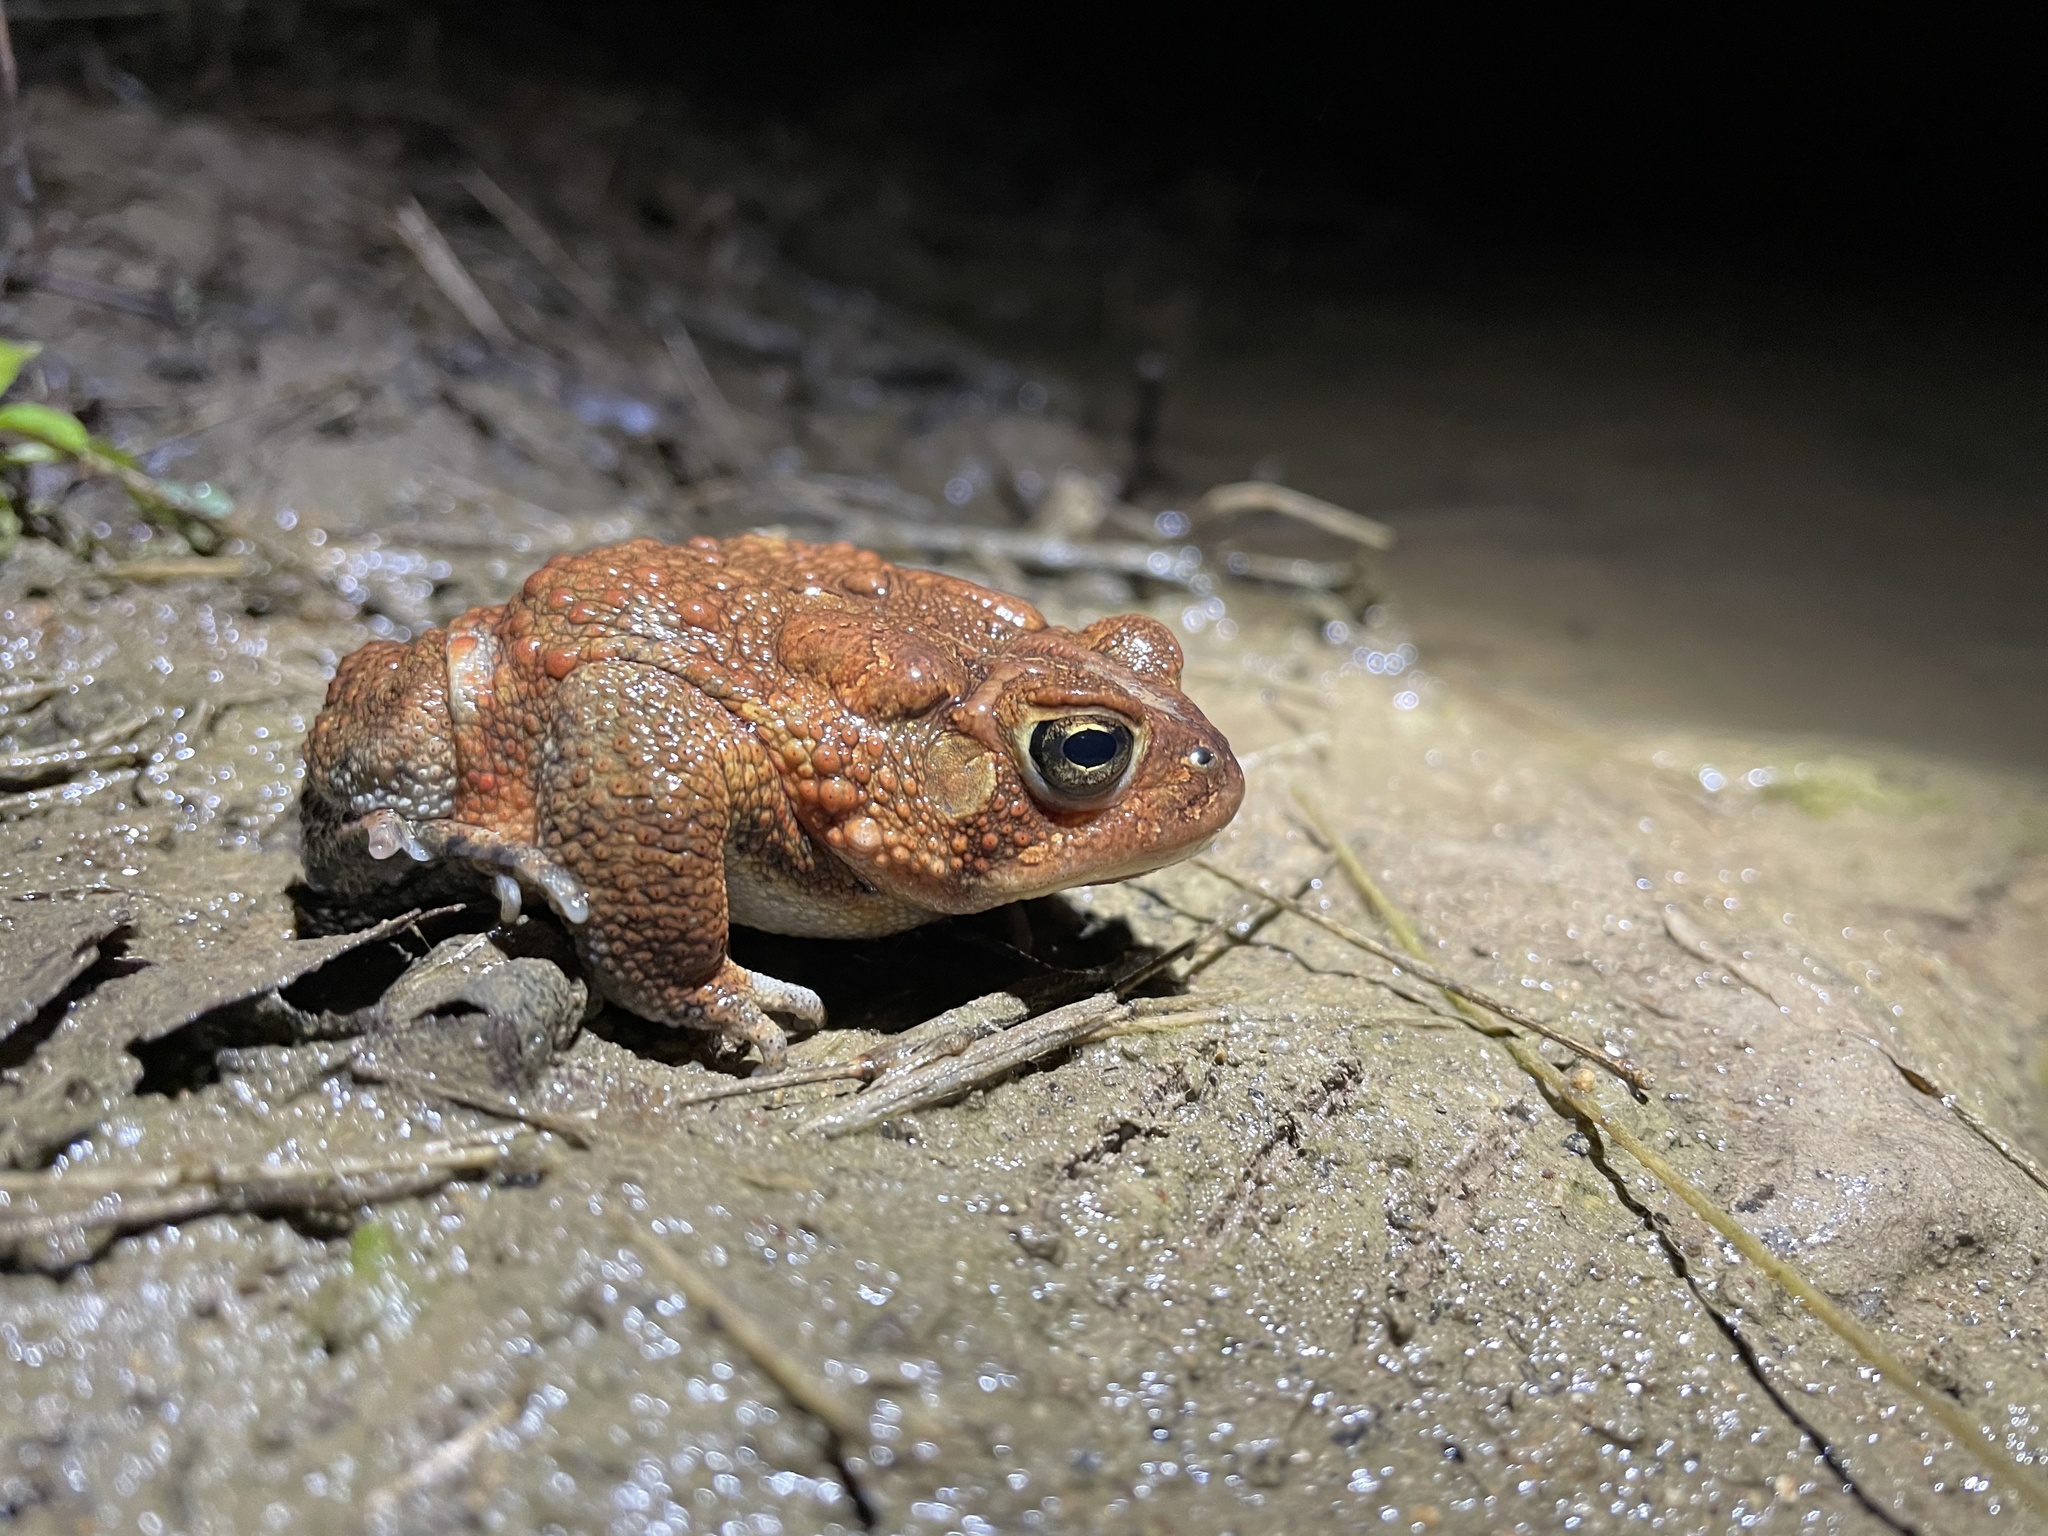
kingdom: Animalia
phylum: Chordata
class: Amphibia
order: Anura
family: Bufonidae
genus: Anaxyrus
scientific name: Anaxyrus americanus
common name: American toad
